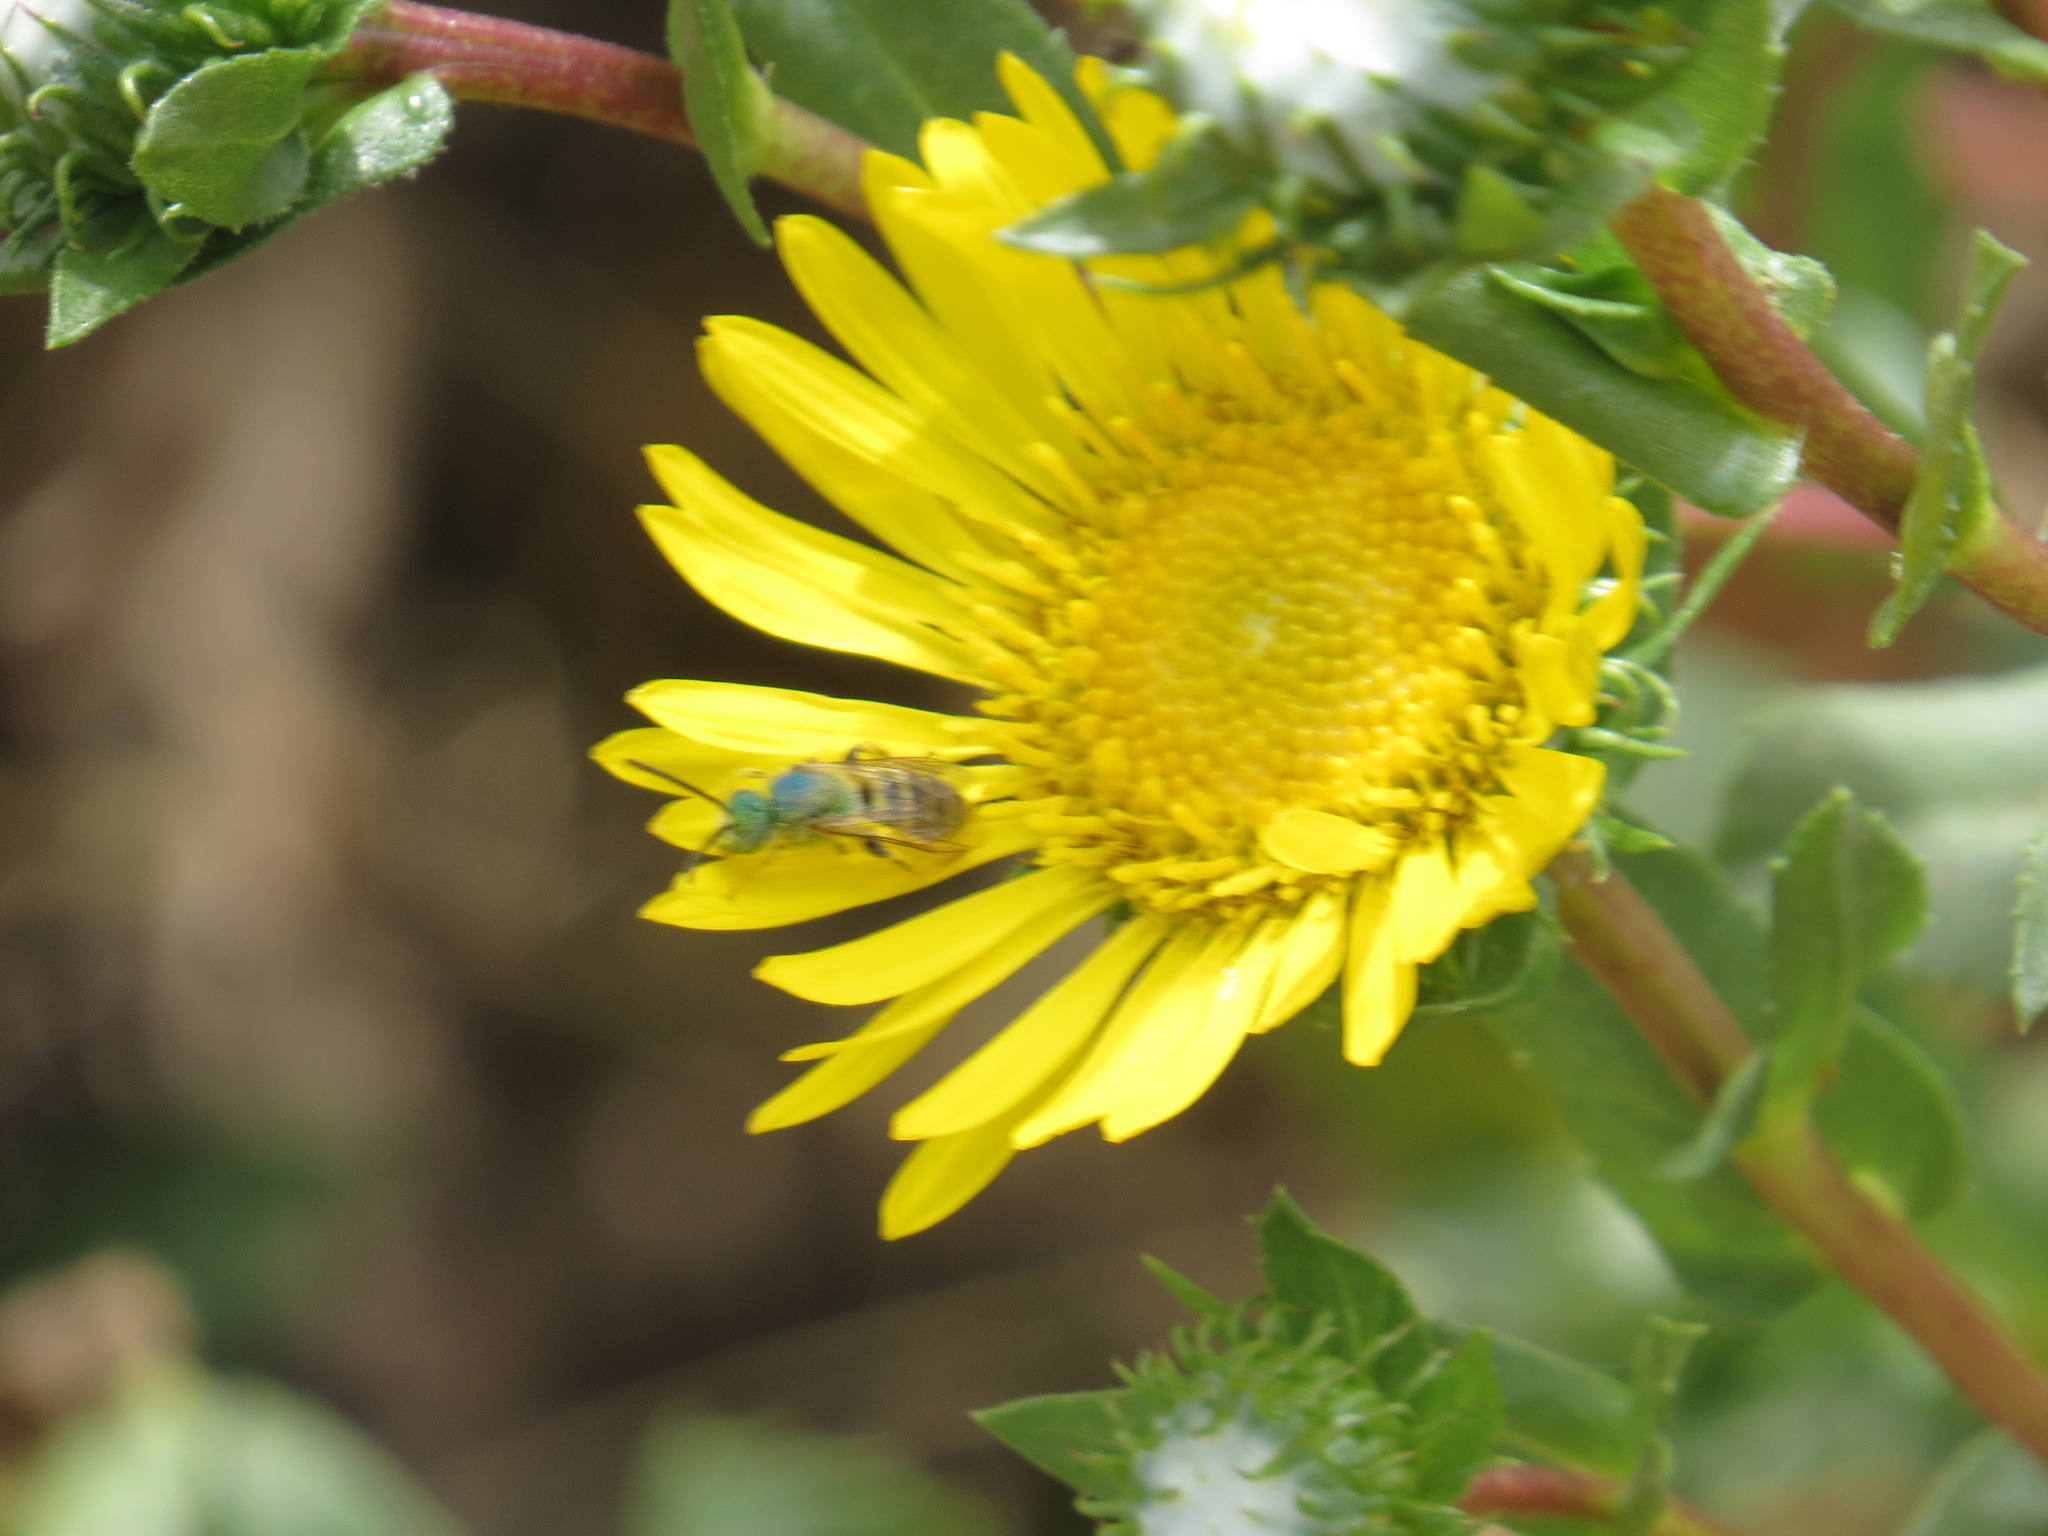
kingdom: Animalia
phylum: Arthropoda
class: Insecta
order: Hymenoptera
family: Halictidae
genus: Agapostemon
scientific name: Agapostemon texanus
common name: Texas striped sweat bee
